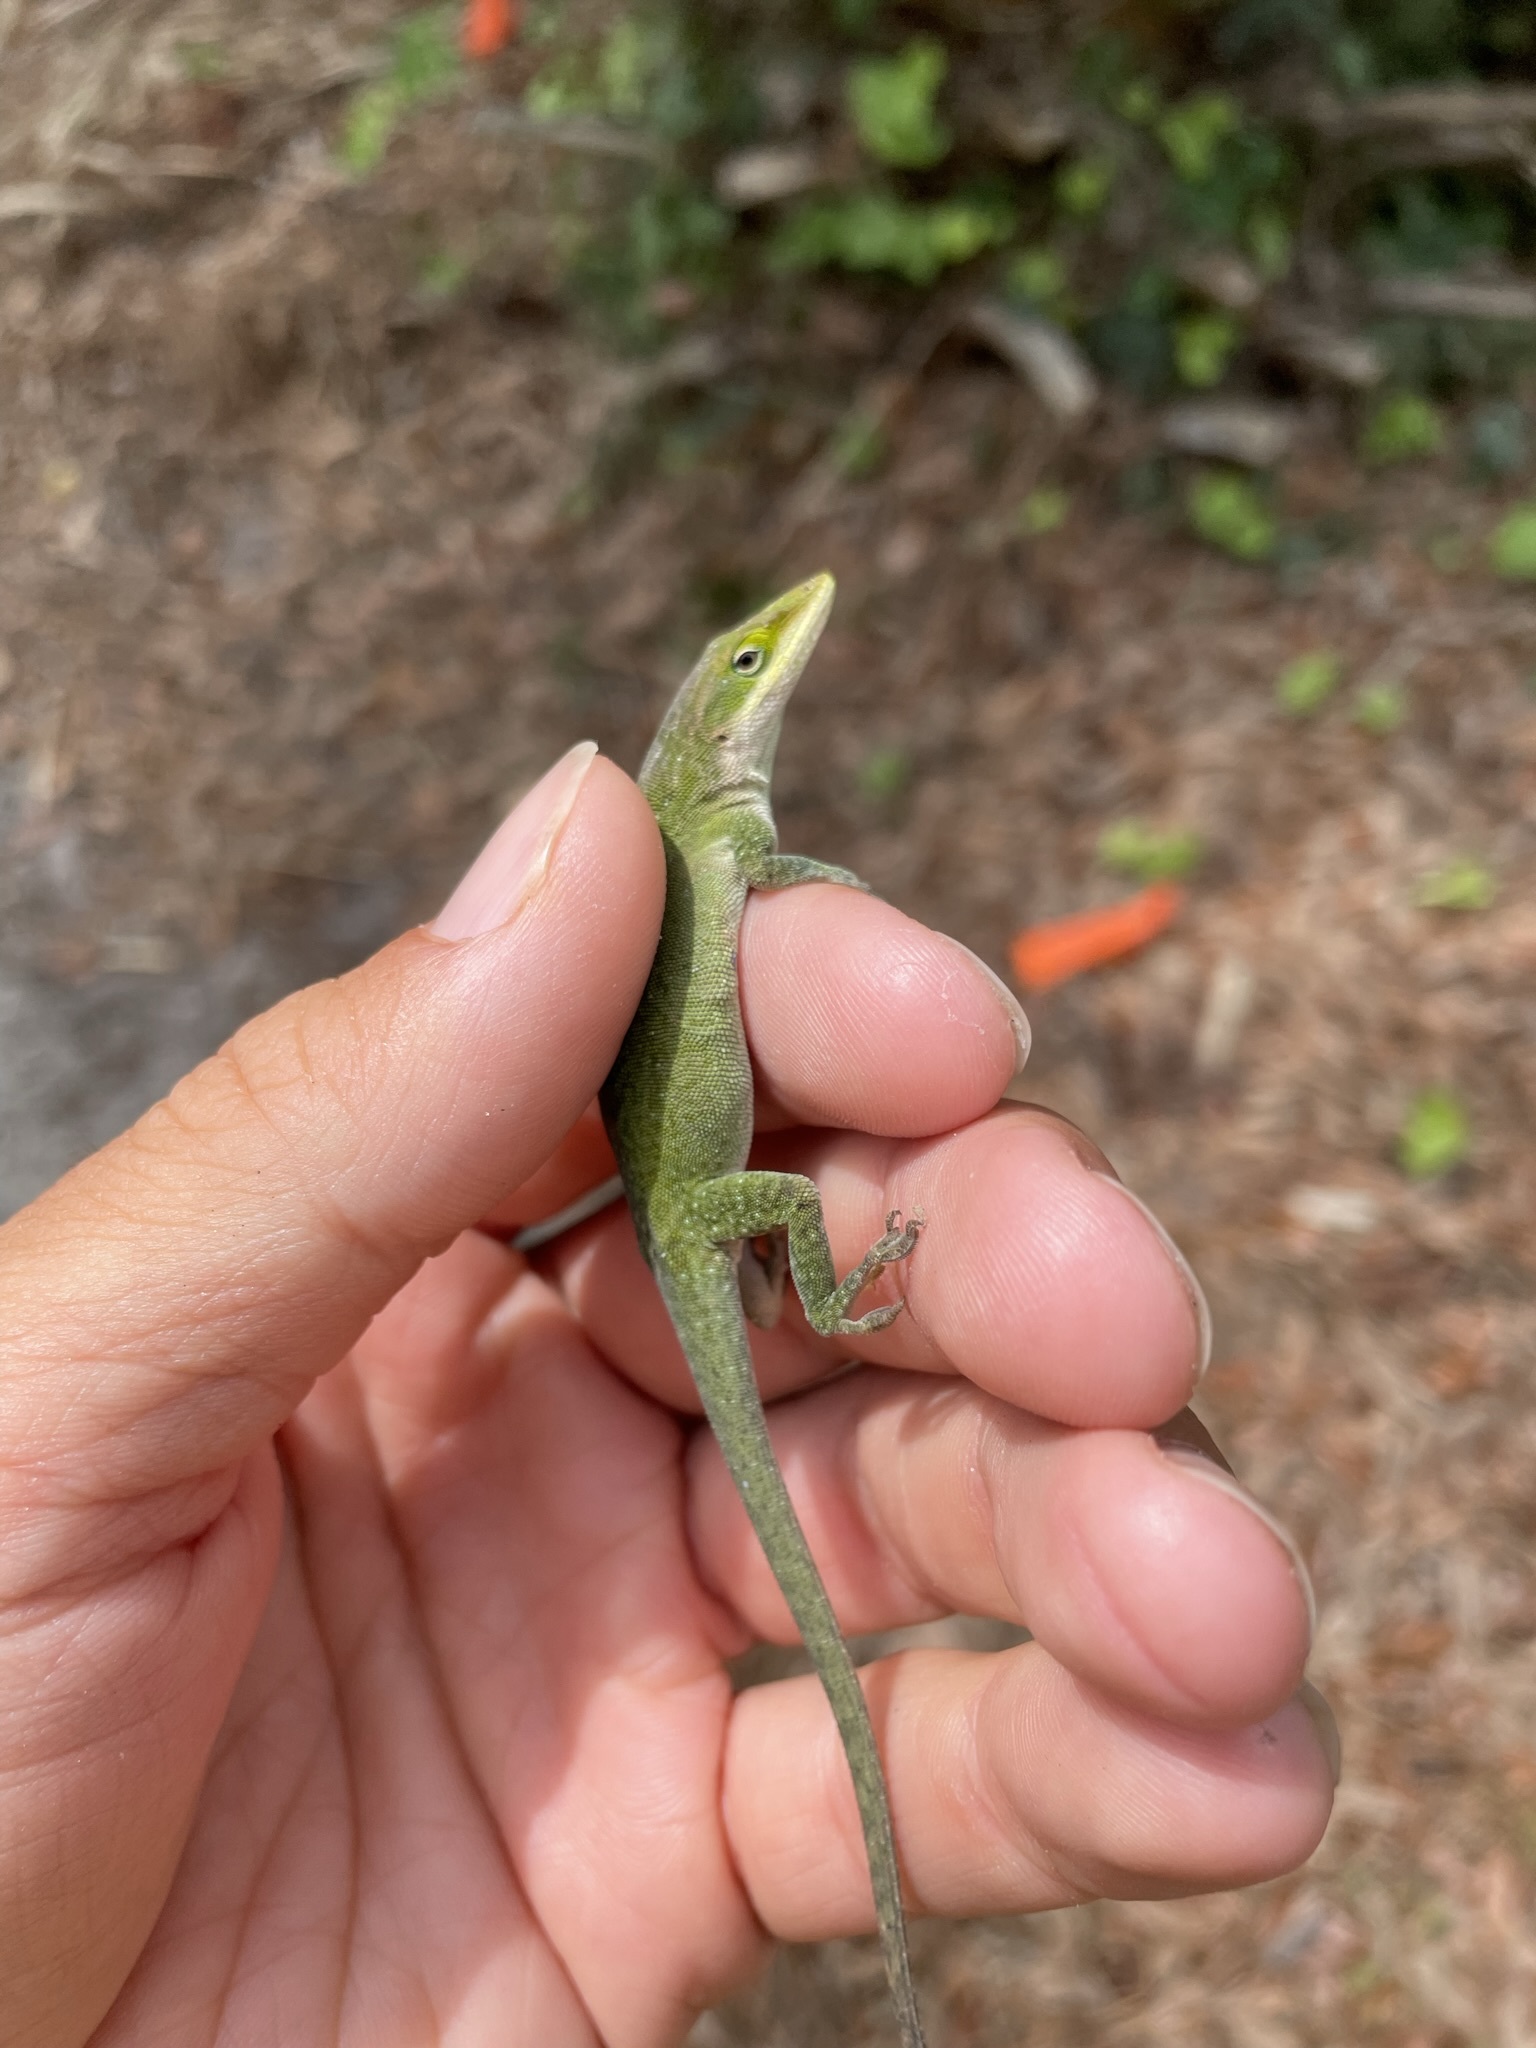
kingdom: Animalia
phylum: Chordata
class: Squamata
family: Dactyloidae
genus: Anolis
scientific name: Anolis carolinensis
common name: Green anole
